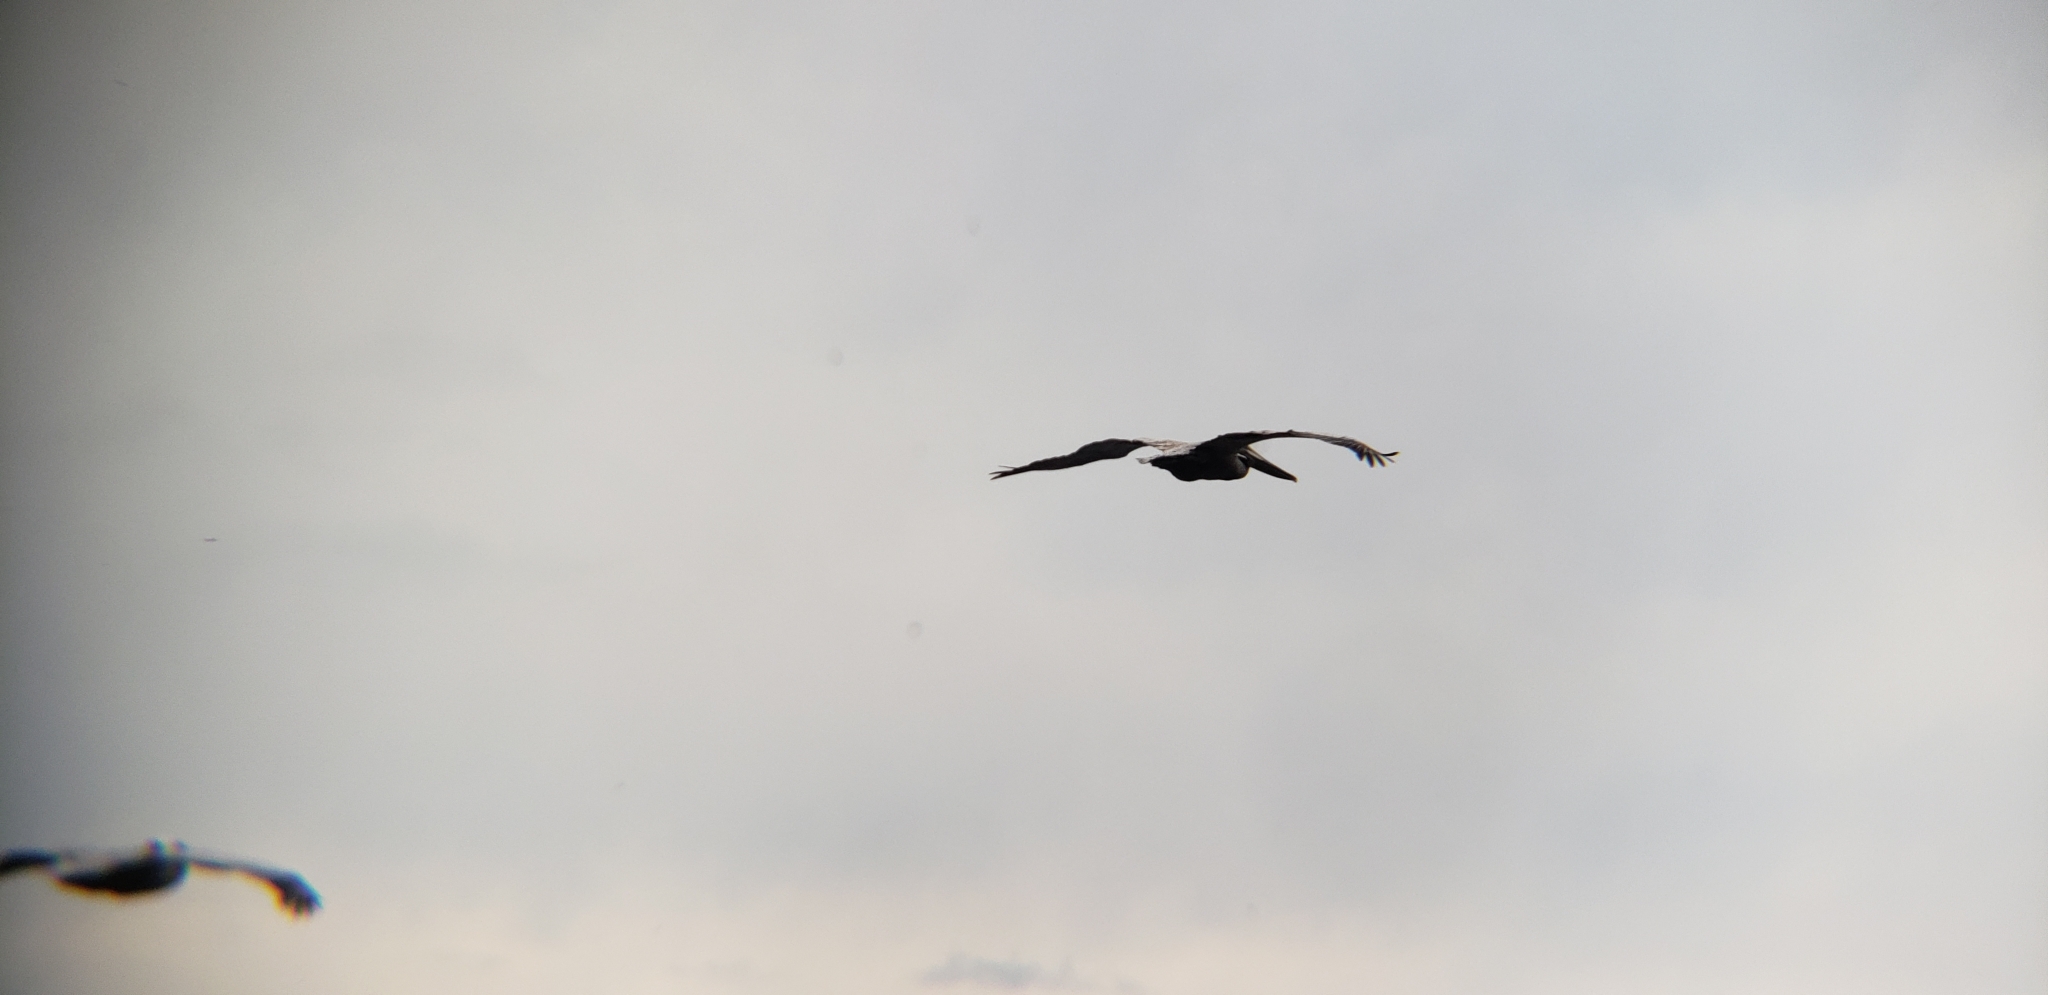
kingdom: Animalia
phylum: Chordata
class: Aves
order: Pelecaniformes
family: Pelecanidae
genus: Pelecanus
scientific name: Pelecanus occidentalis
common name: Brown pelican
